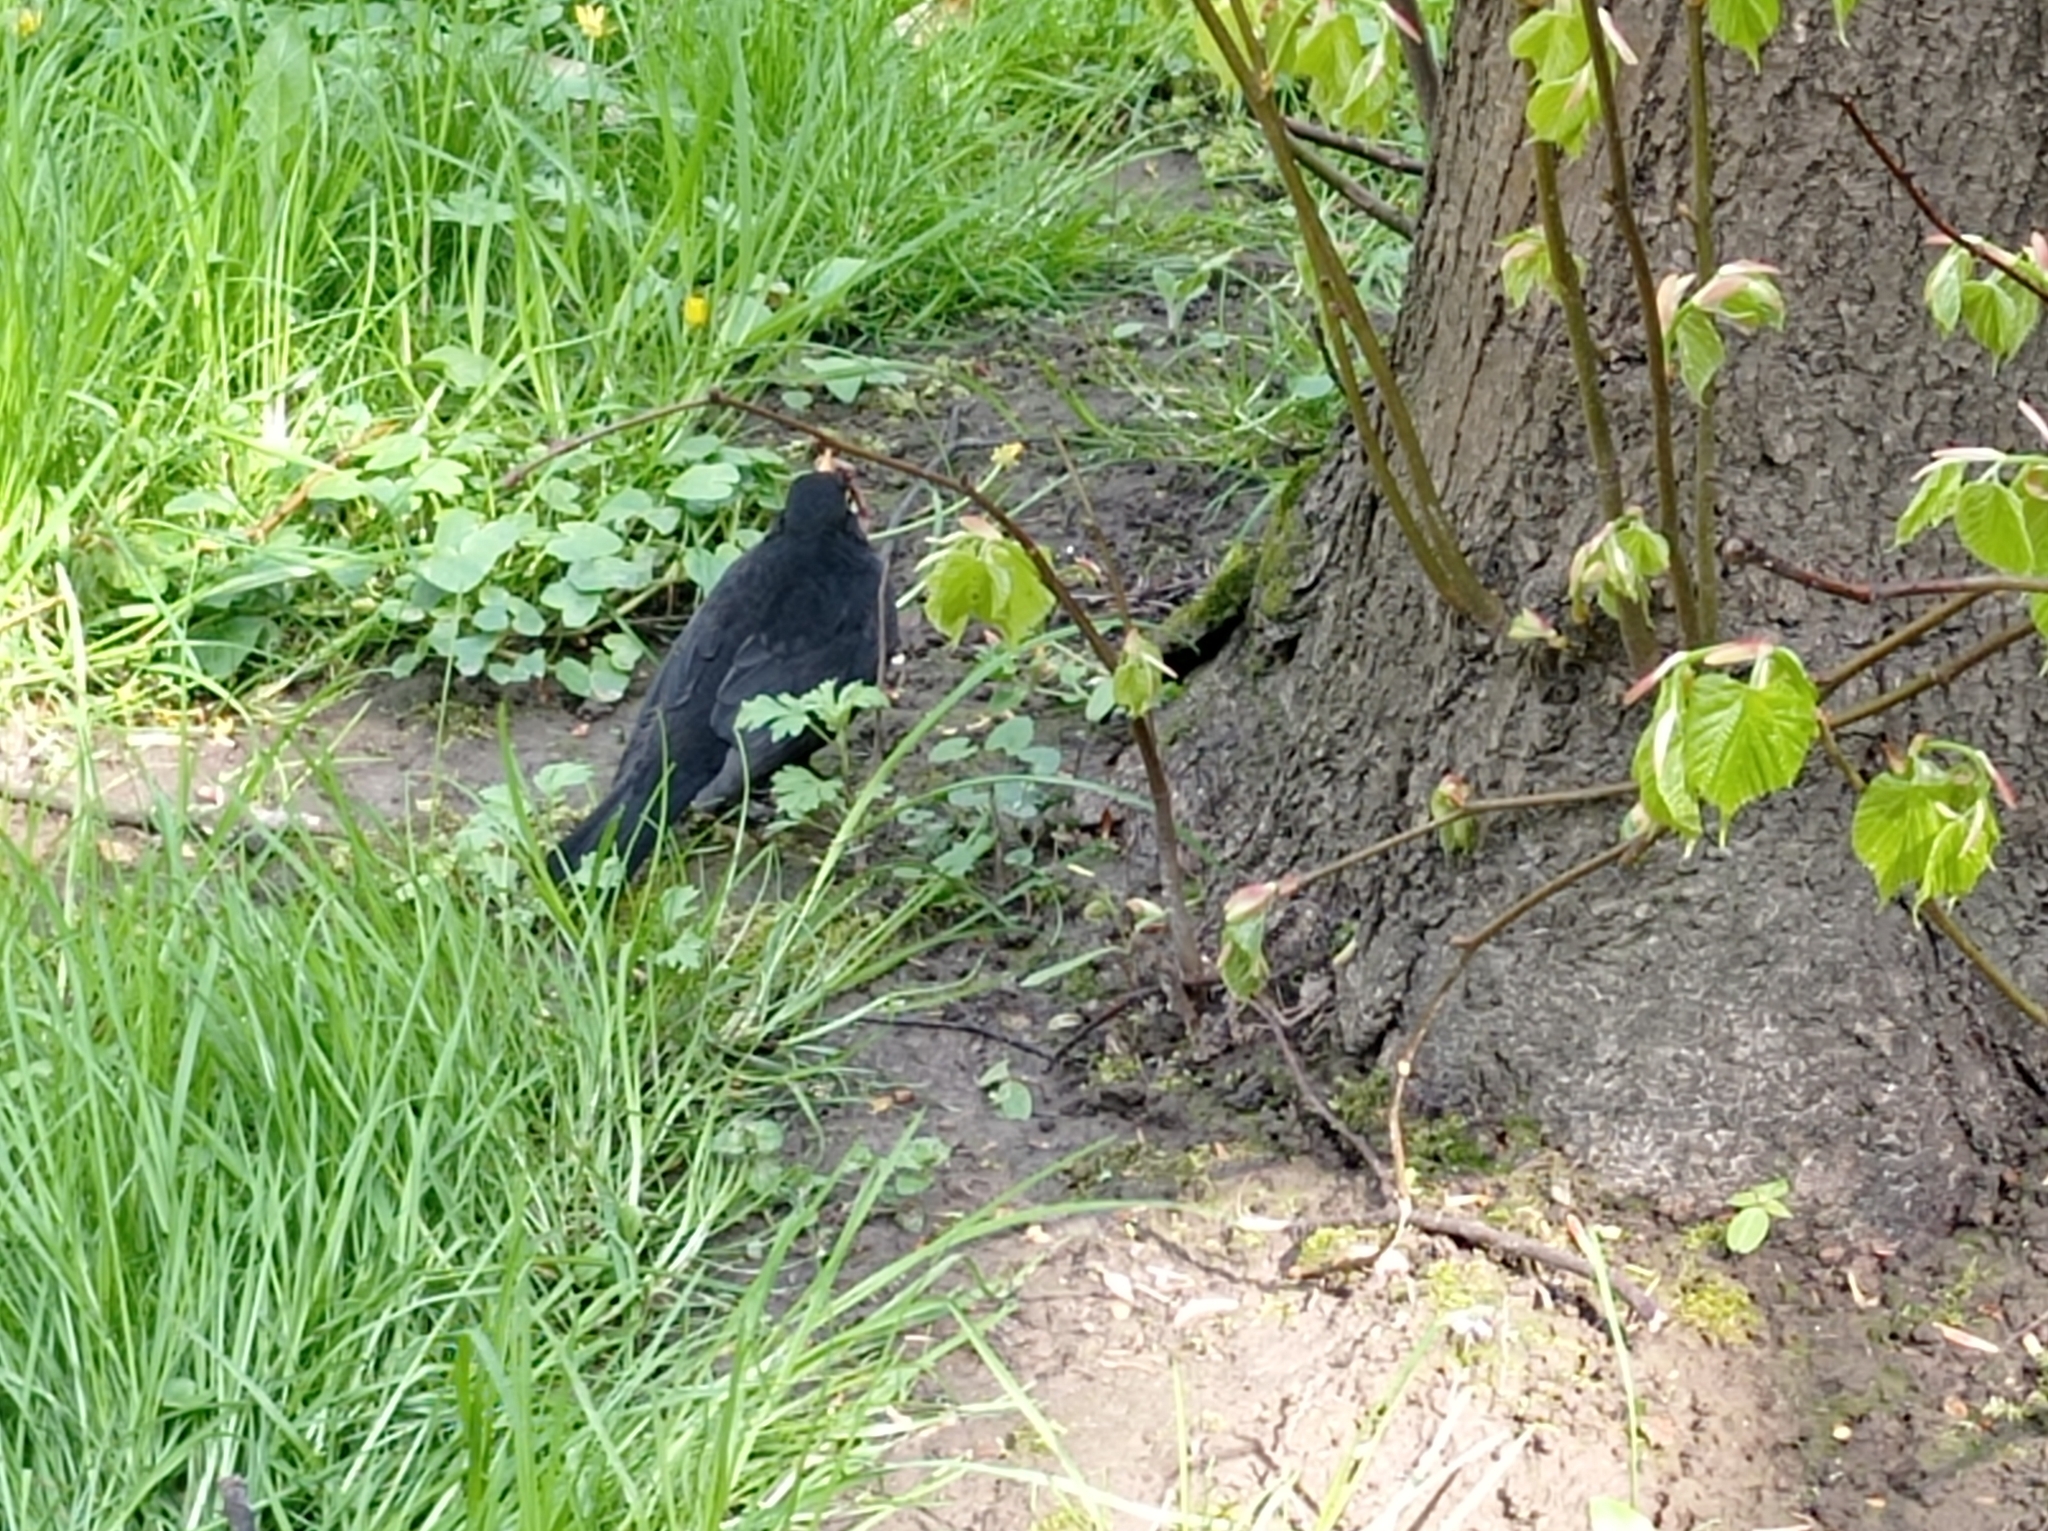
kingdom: Animalia
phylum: Chordata
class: Aves
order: Passeriformes
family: Turdidae
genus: Turdus
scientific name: Turdus merula
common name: Common blackbird
